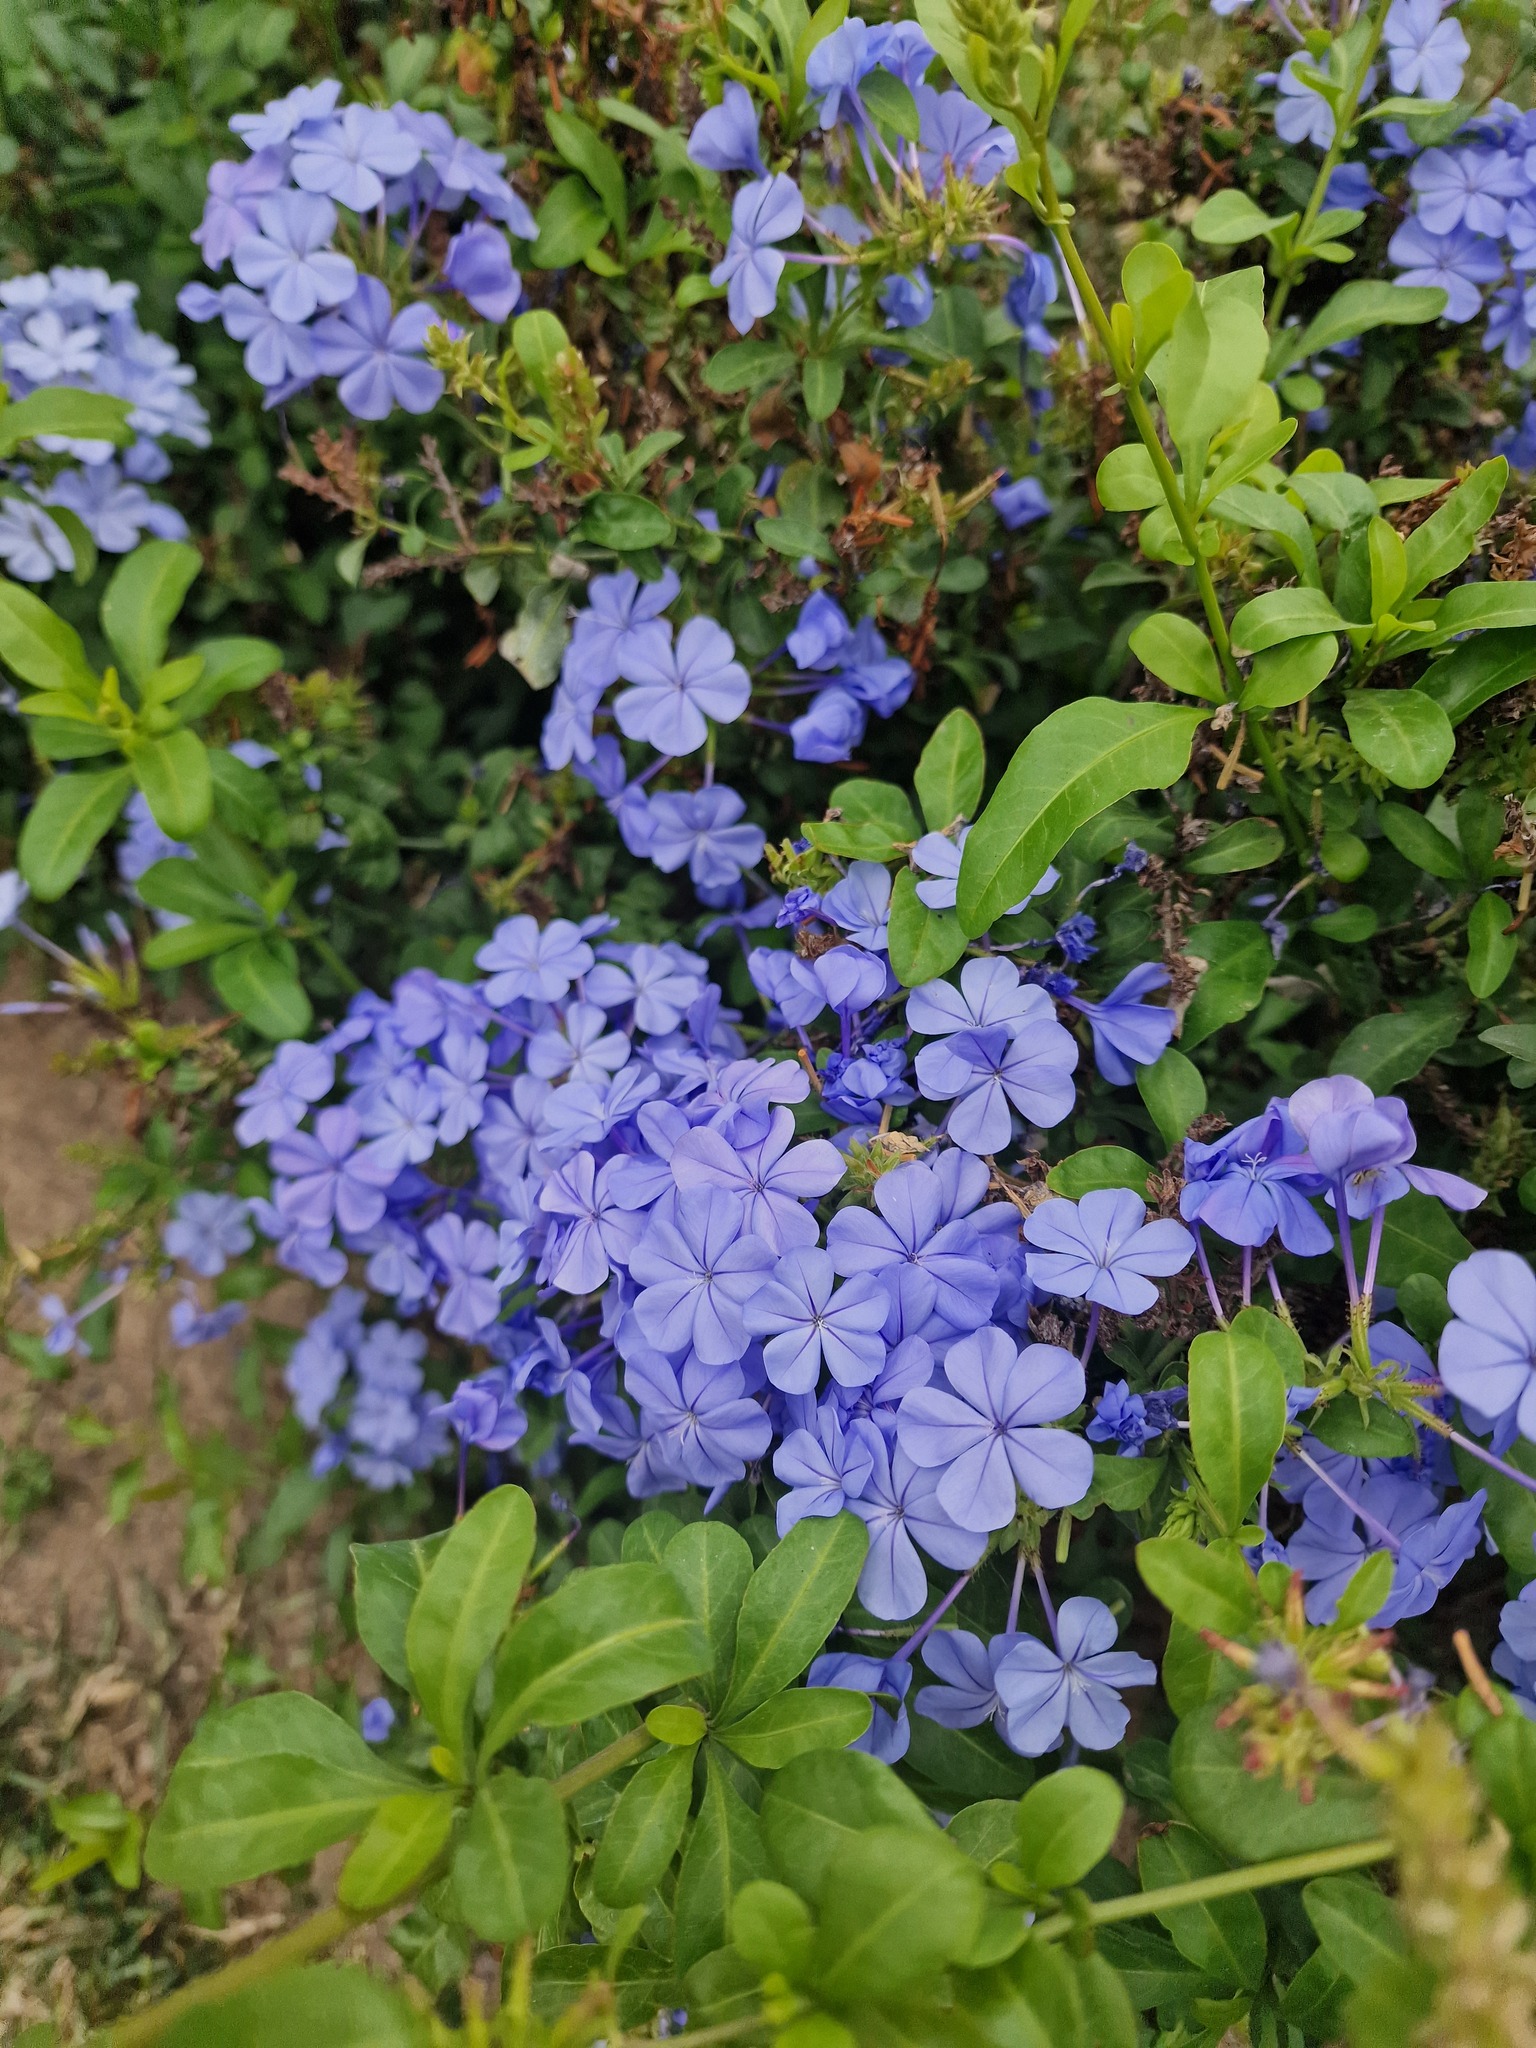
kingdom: Plantae
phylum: Tracheophyta
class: Magnoliopsida
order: Caryophyllales
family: Plumbaginaceae
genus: Plumbago
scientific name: Plumbago auriculata
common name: Cape leadwort
